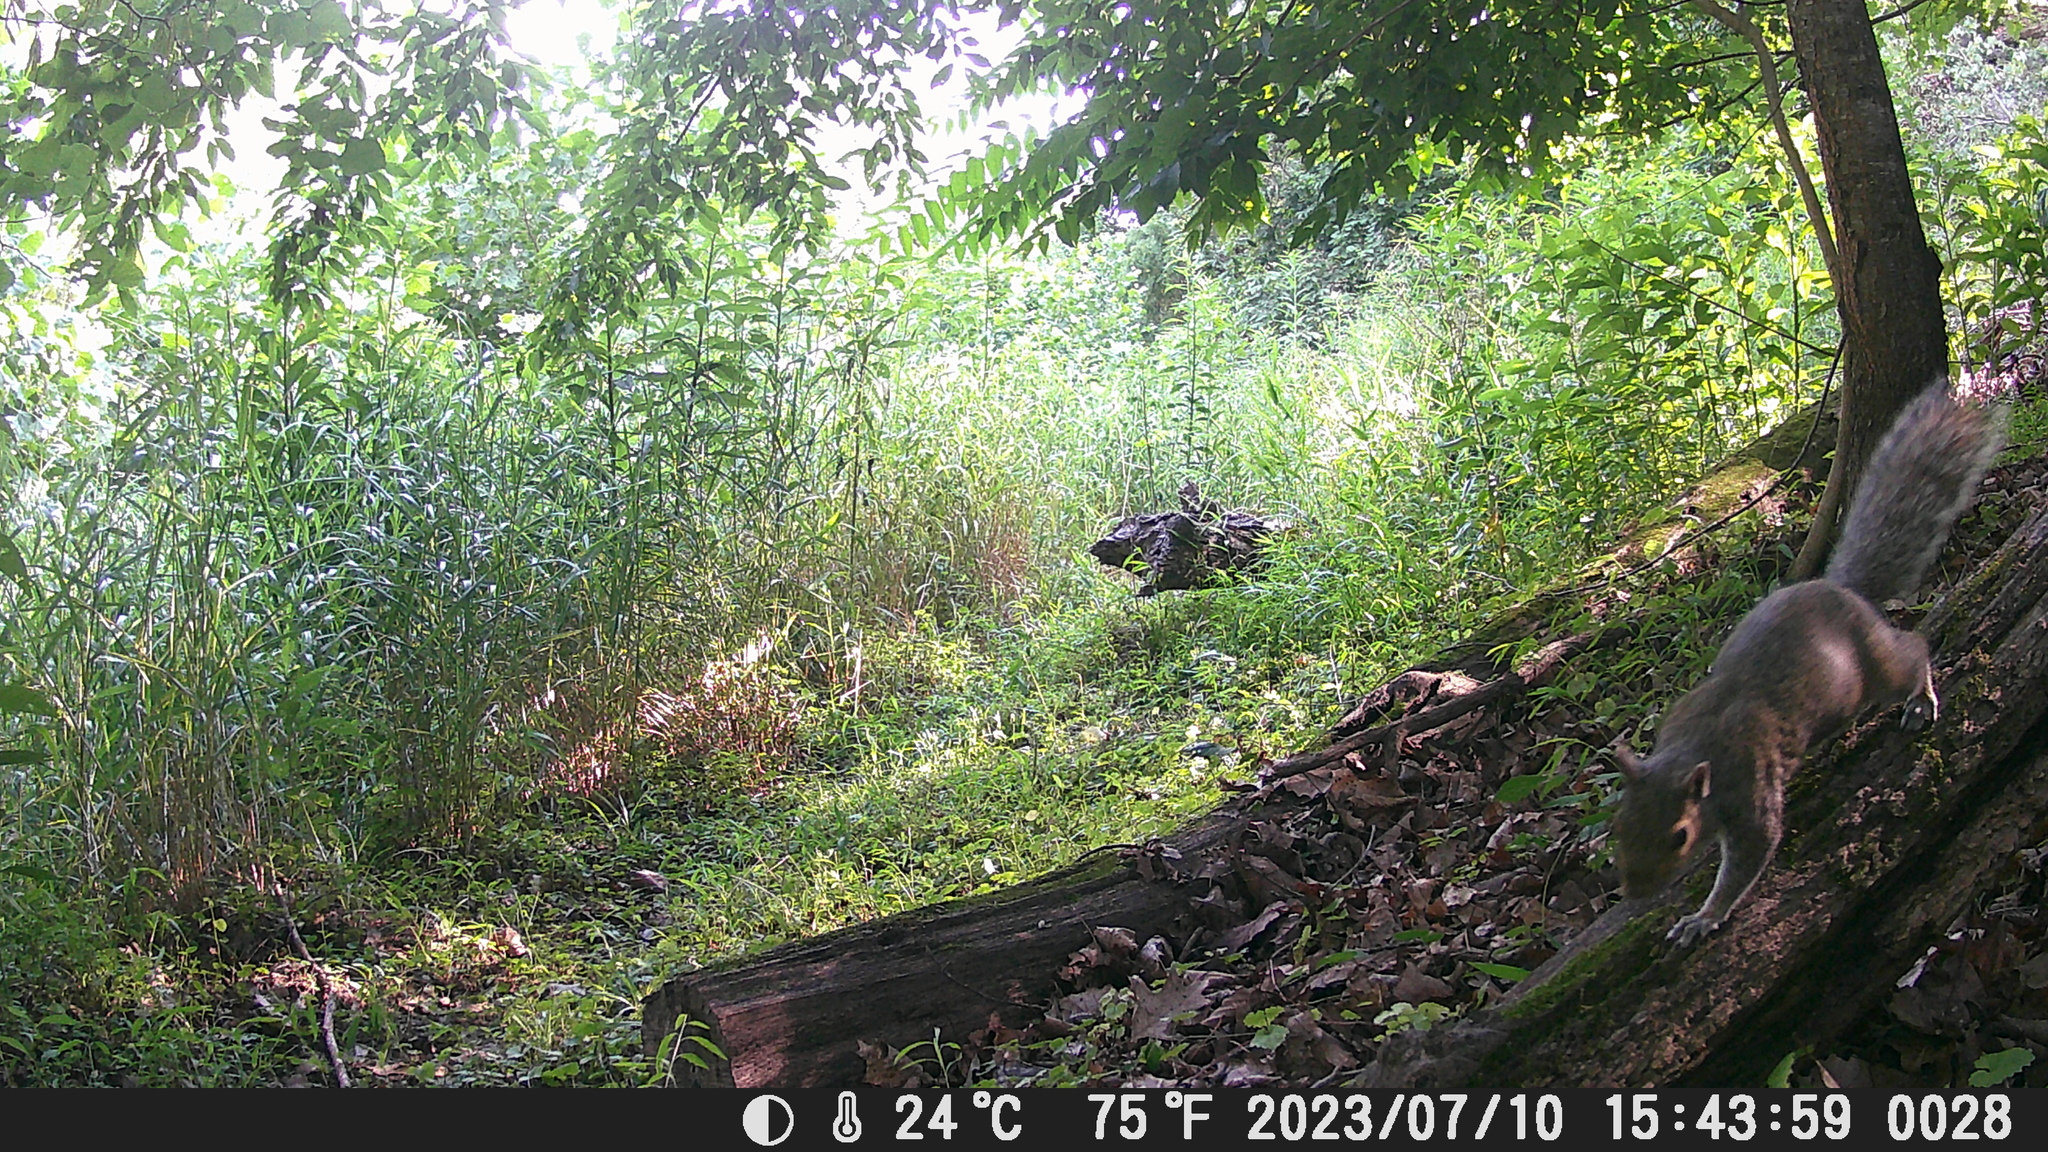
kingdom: Animalia
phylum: Chordata
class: Mammalia
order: Rodentia
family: Sciuridae
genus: Sciurus
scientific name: Sciurus carolinensis
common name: Eastern gray squirrel
